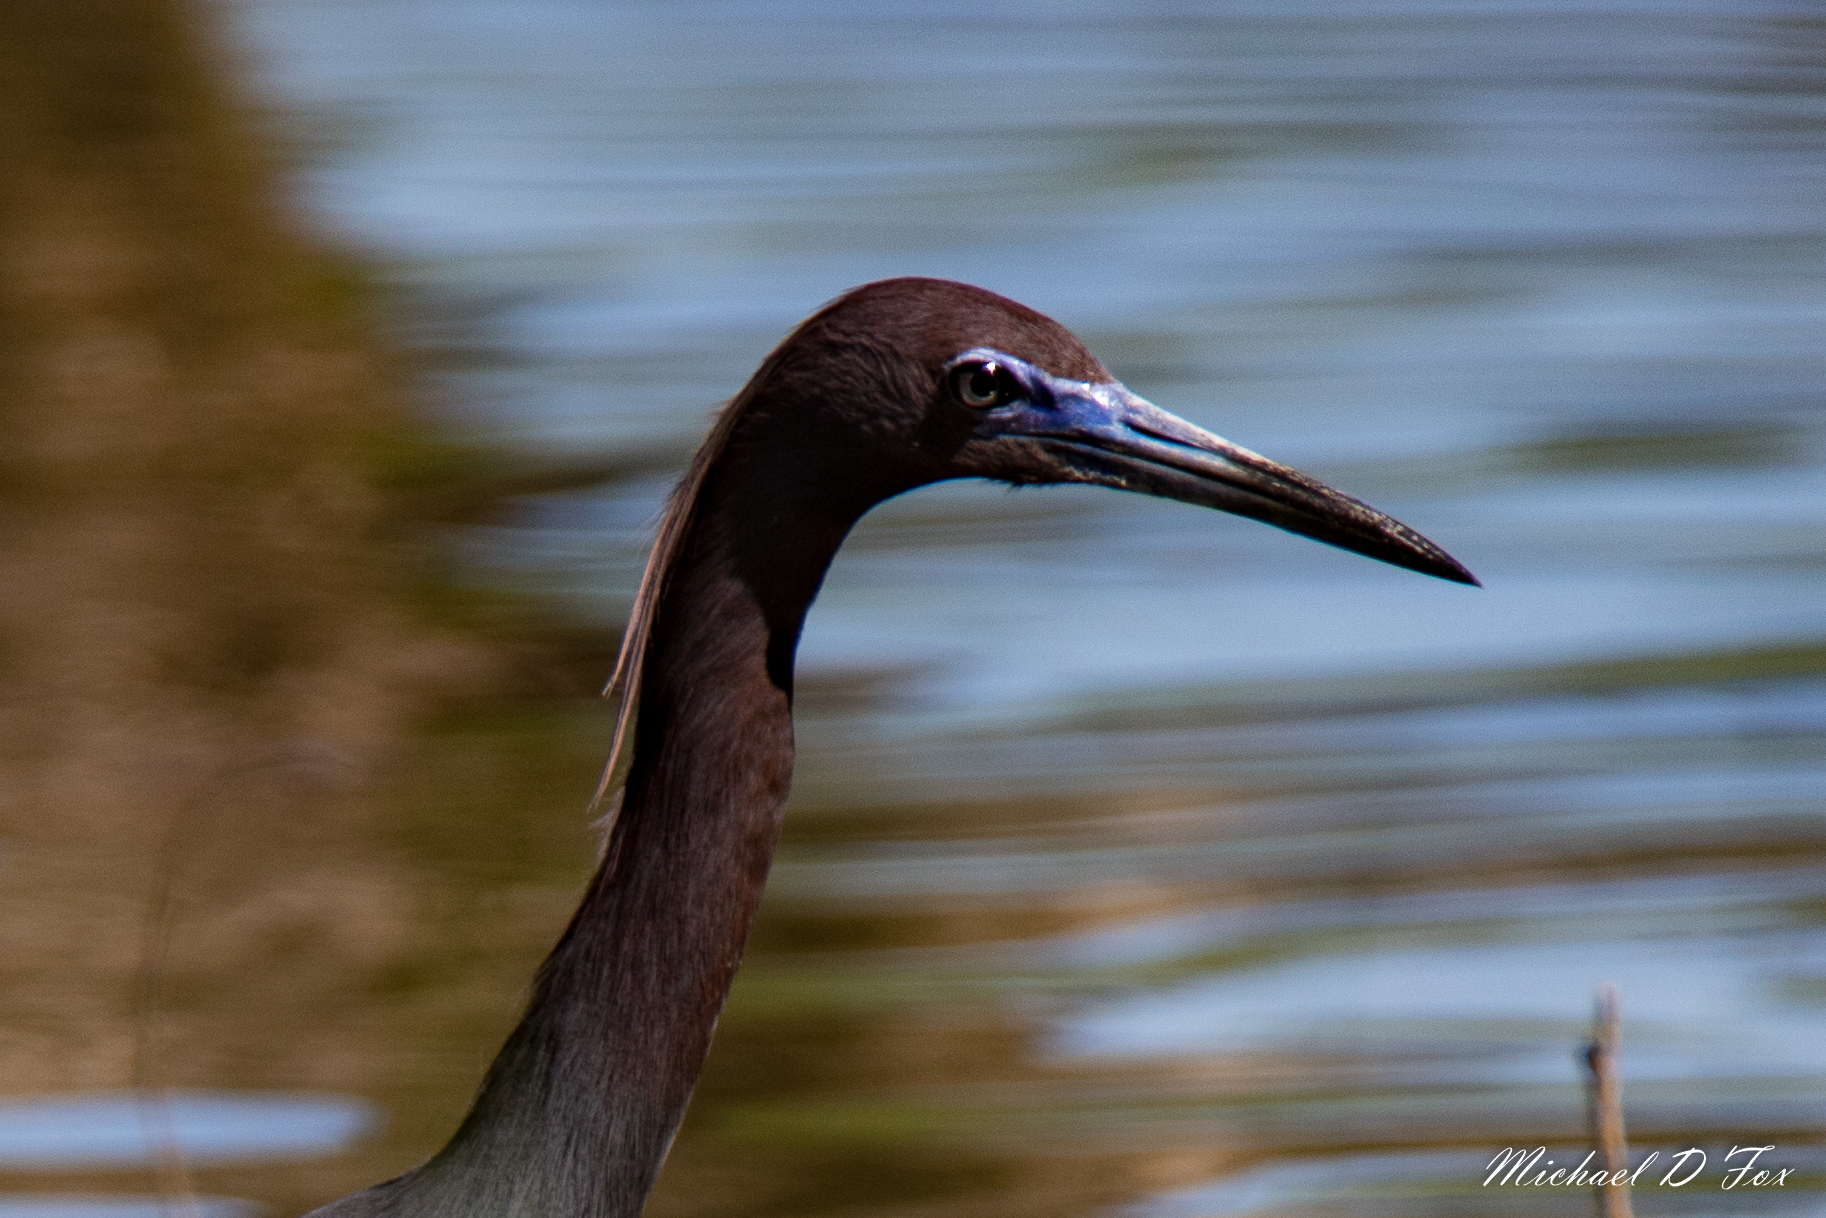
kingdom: Animalia
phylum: Chordata
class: Aves
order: Pelecaniformes
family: Ardeidae
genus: Egretta
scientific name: Egretta caerulea
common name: Little blue heron
